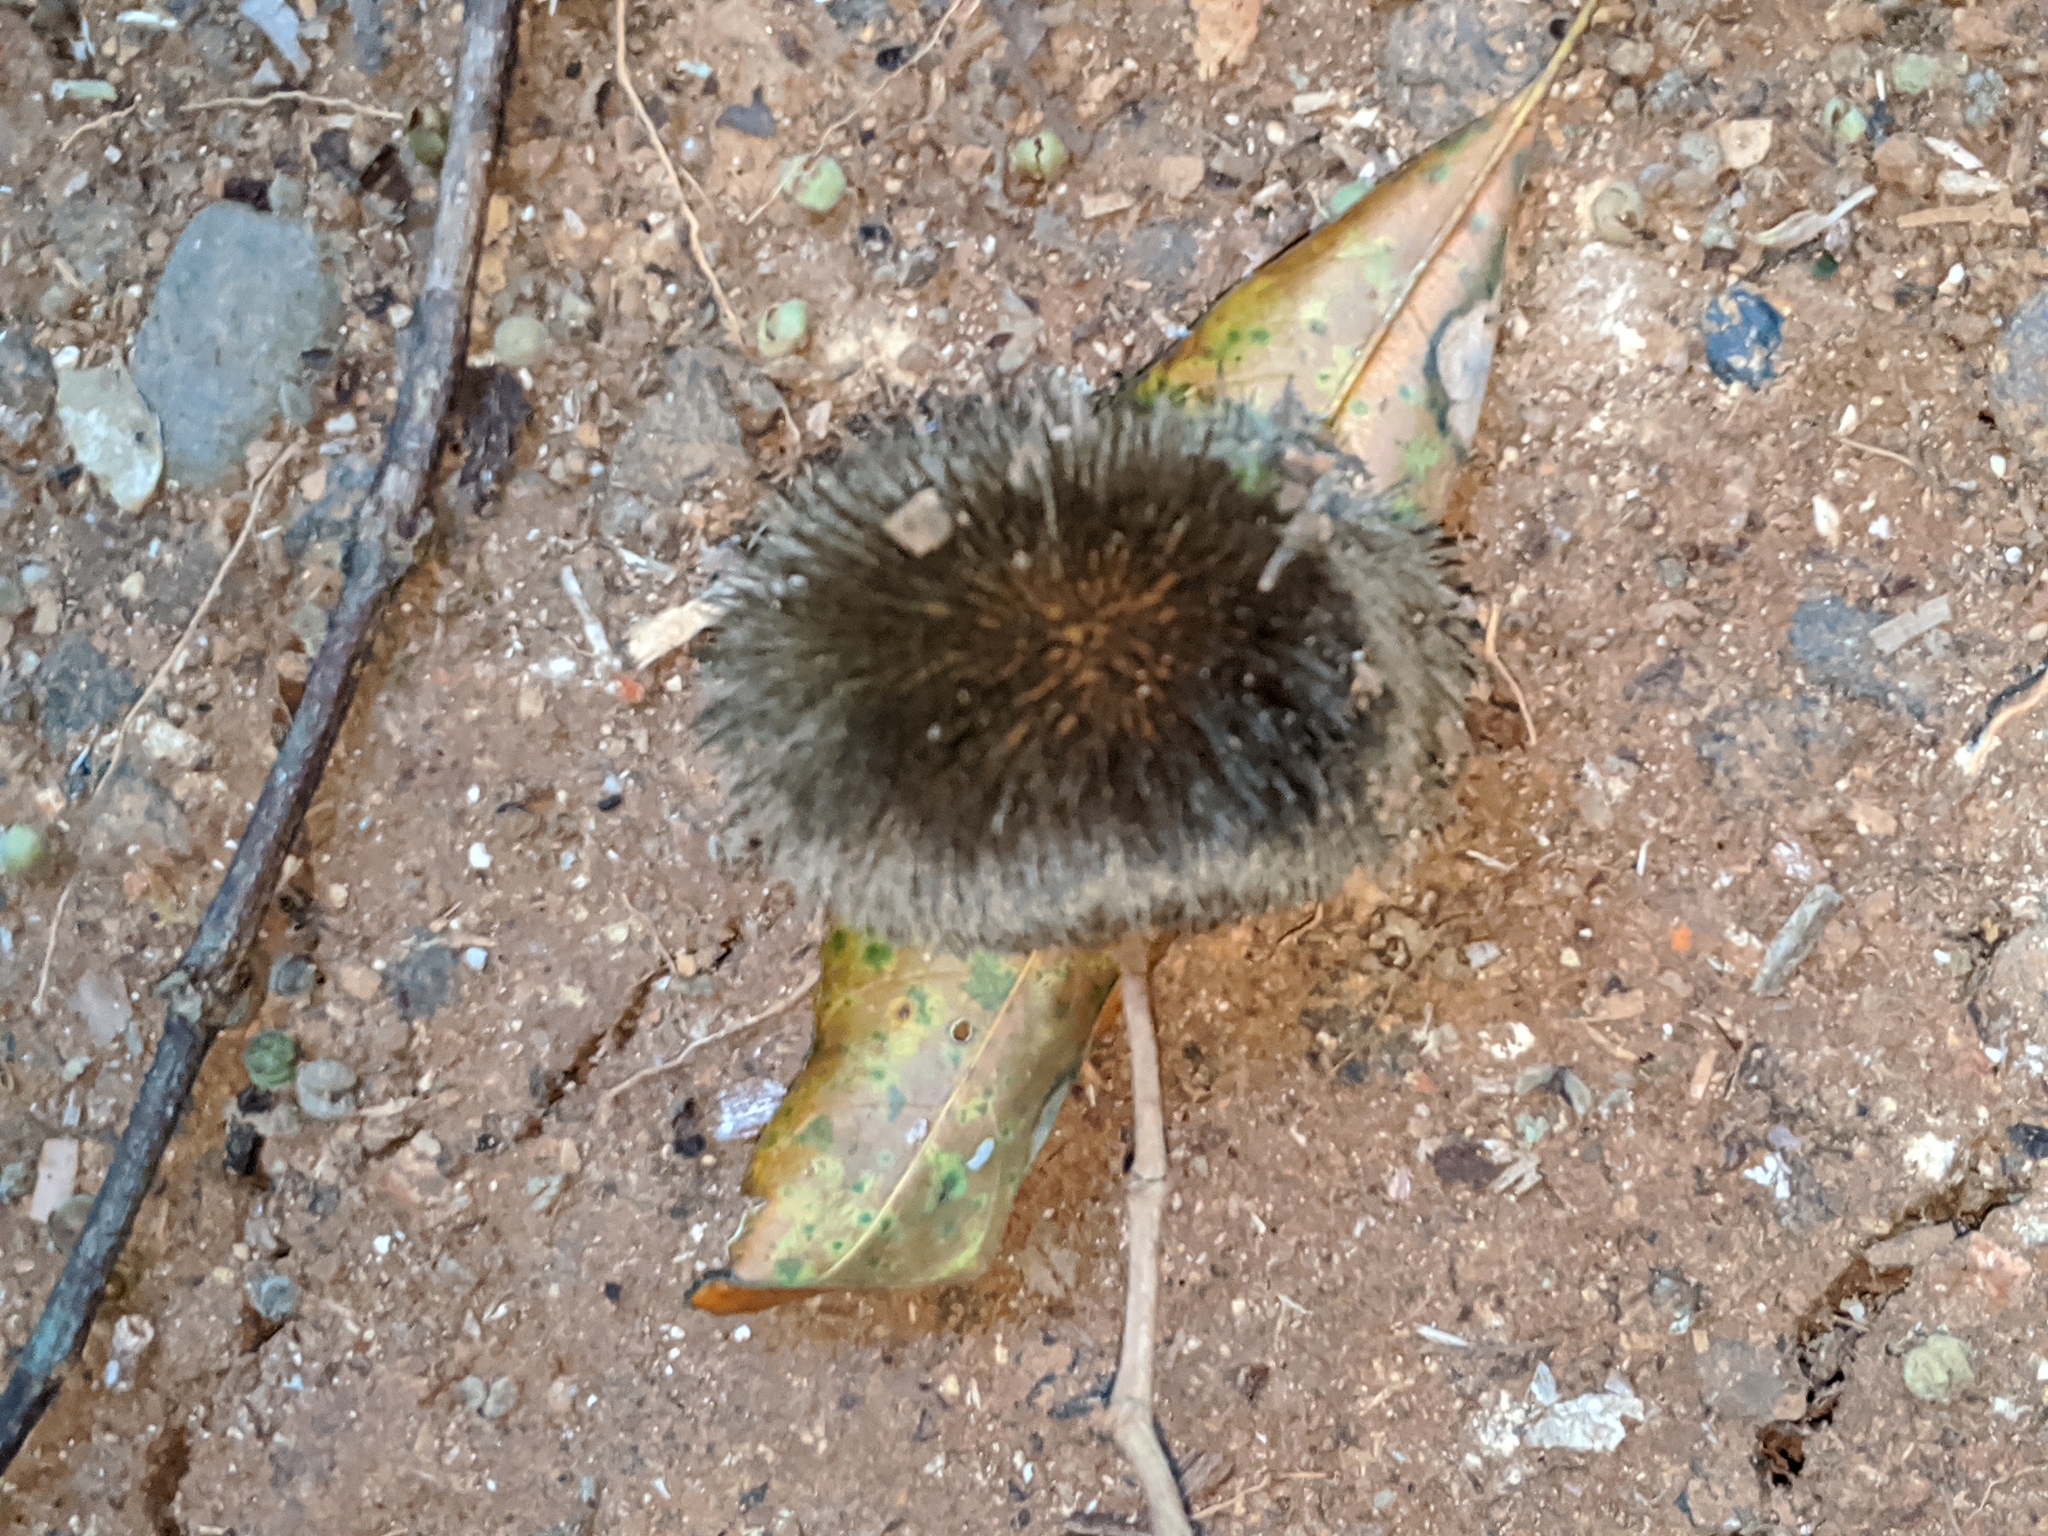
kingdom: Plantae
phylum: Tracheophyta
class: Magnoliopsida
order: Malvales
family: Malvaceae
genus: Apeiba
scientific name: Apeiba tibourbou
